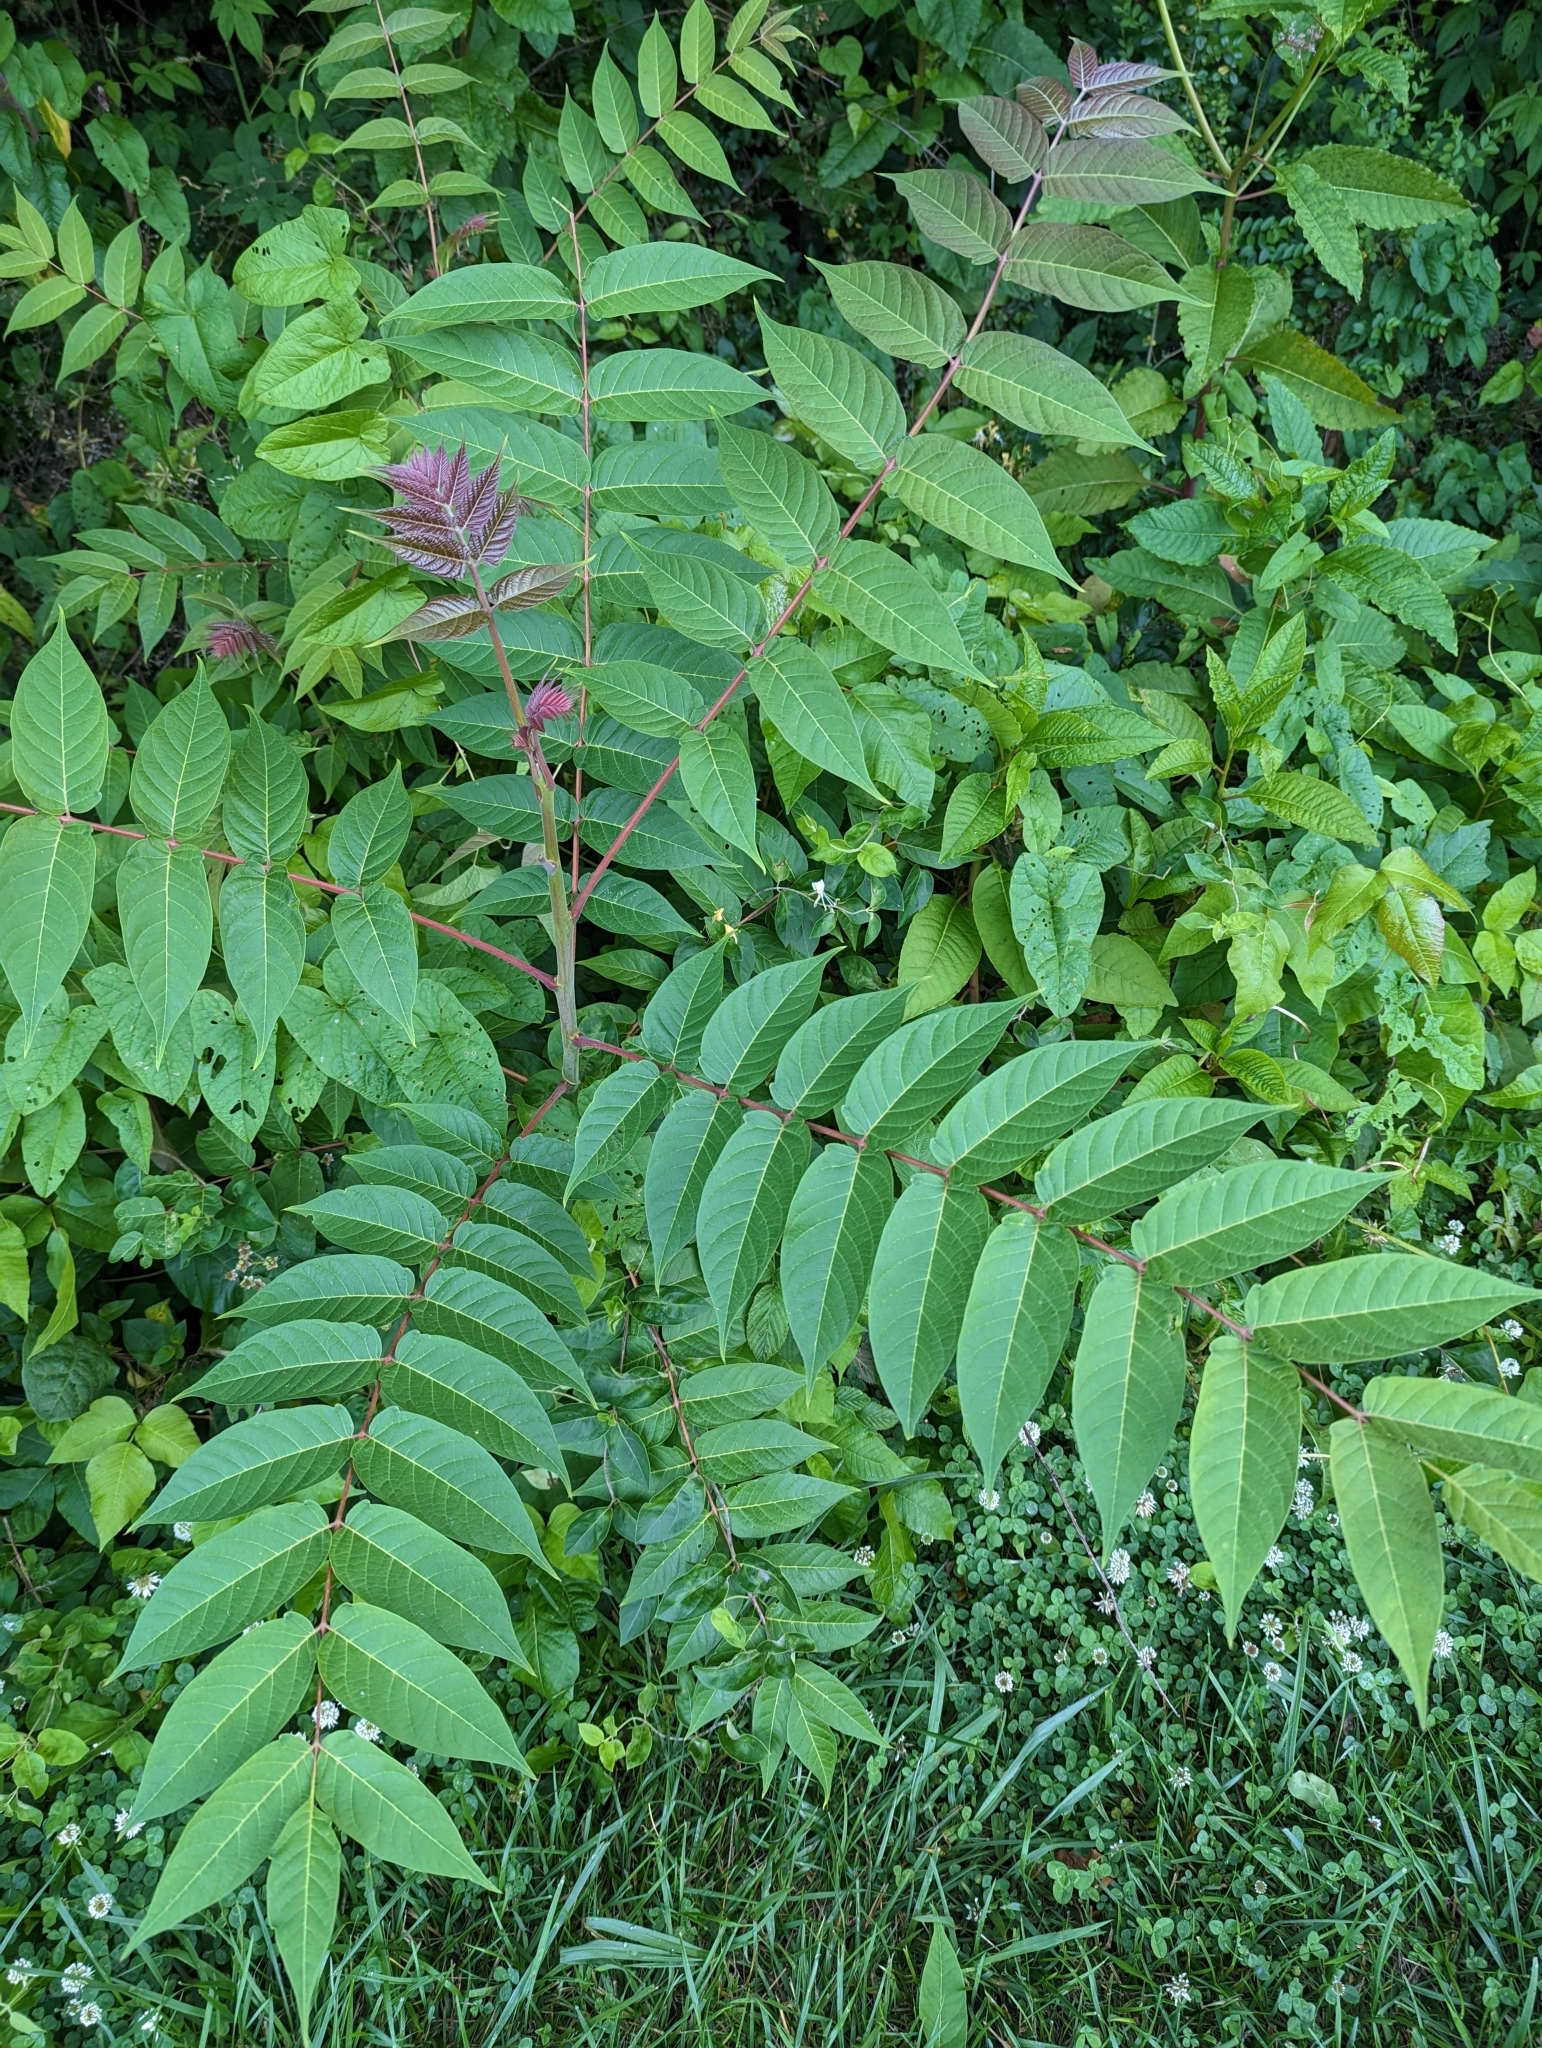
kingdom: Plantae
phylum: Tracheophyta
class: Magnoliopsida
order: Sapindales
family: Simaroubaceae
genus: Ailanthus
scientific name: Ailanthus altissima
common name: Tree-of-heaven
